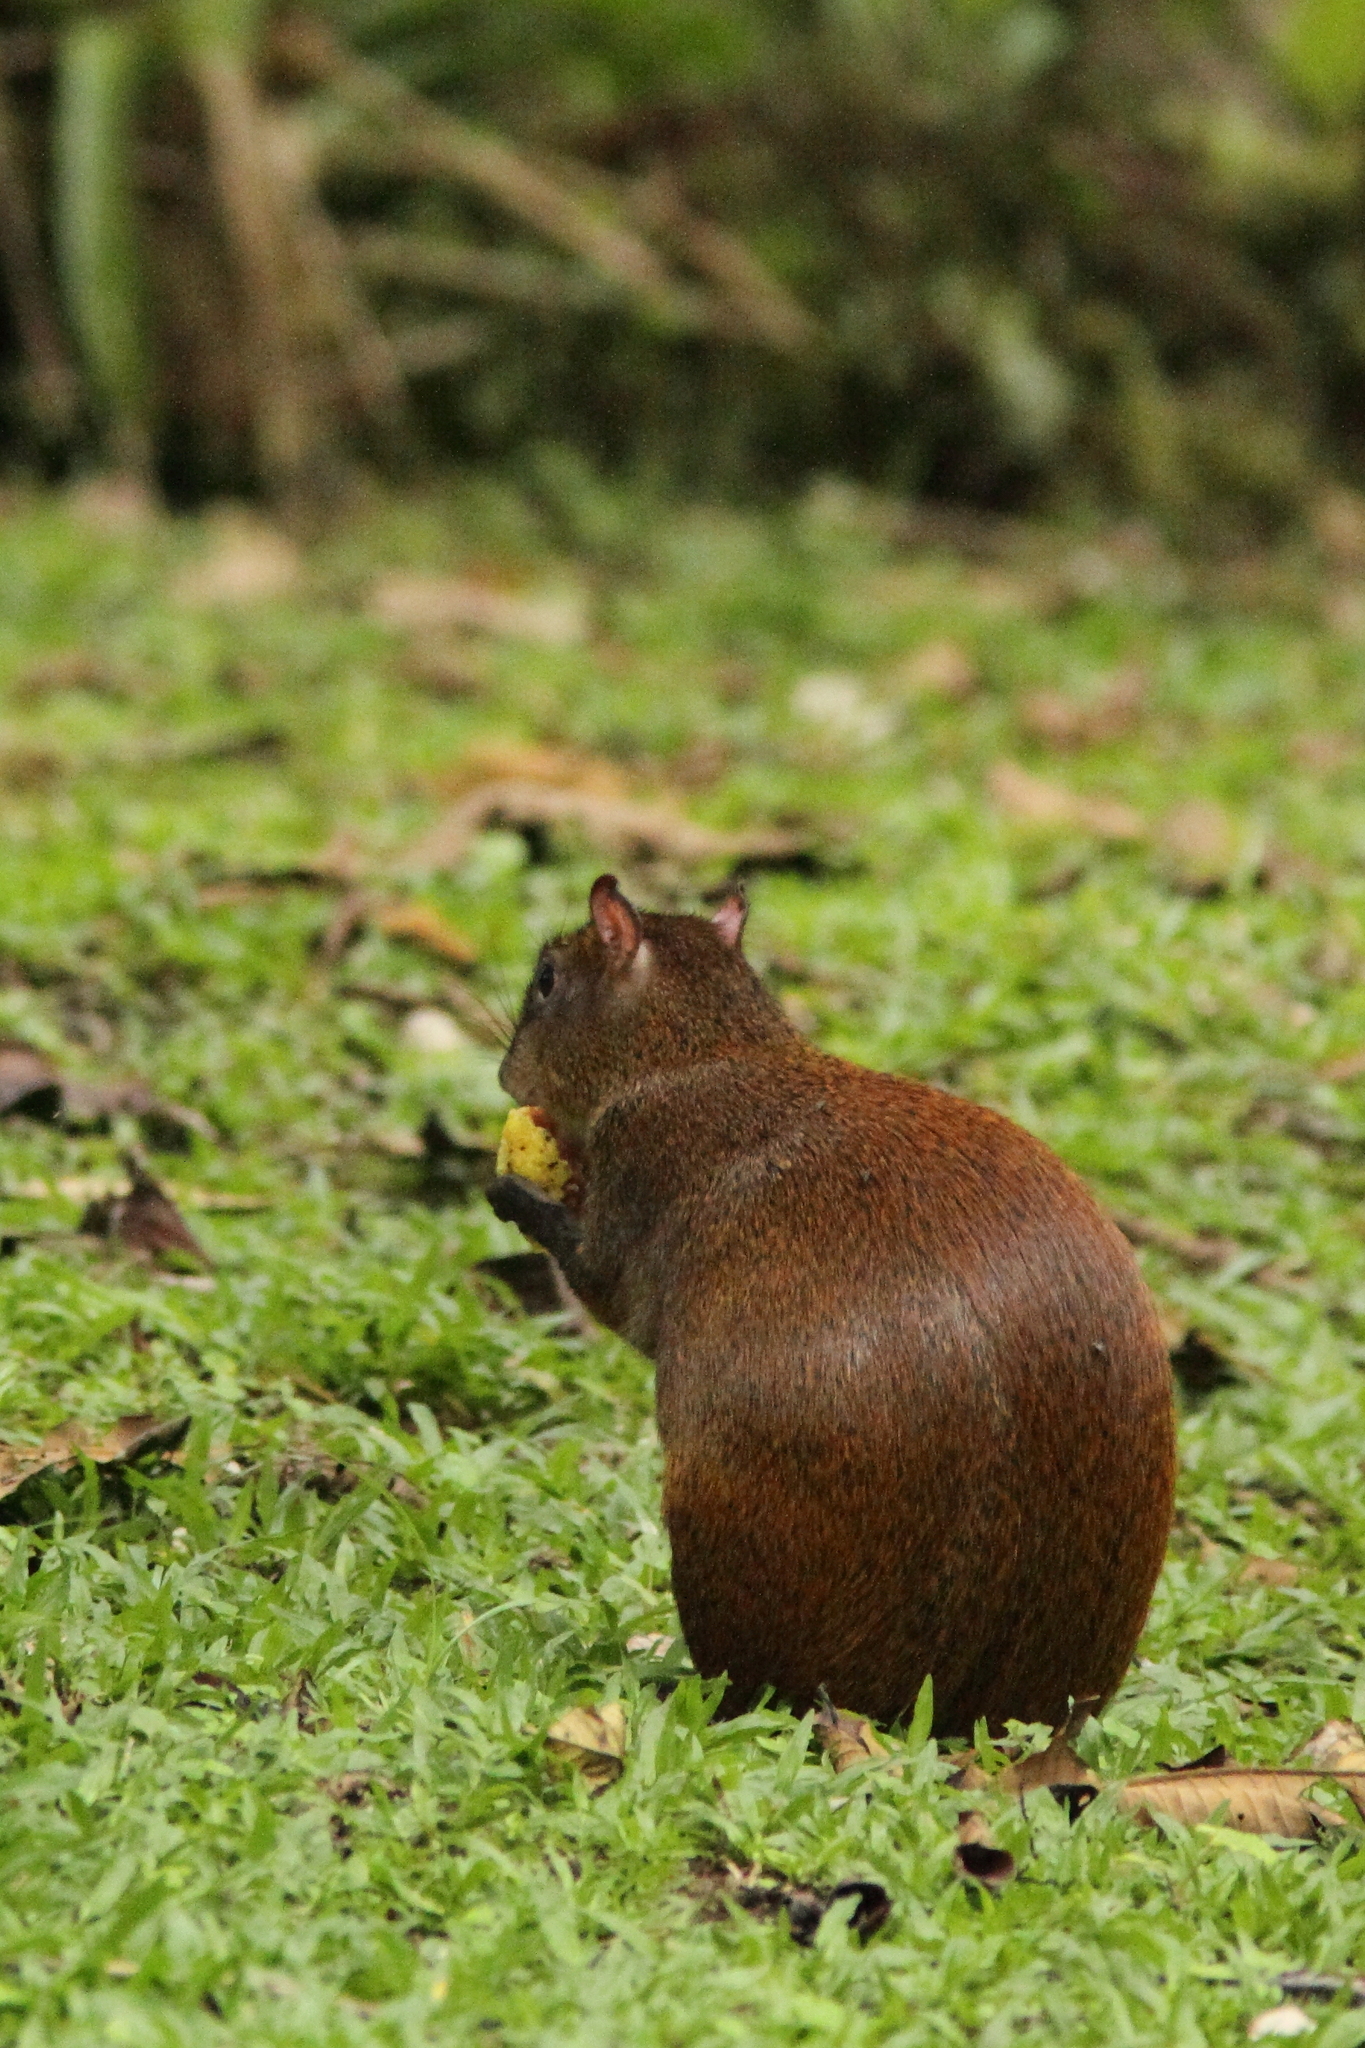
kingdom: Animalia
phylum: Chordata
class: Mammalia
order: Rodentia
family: Dasyproctidae
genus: Dasyprocta
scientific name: Dasyprocta punctata
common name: Central american agouti
